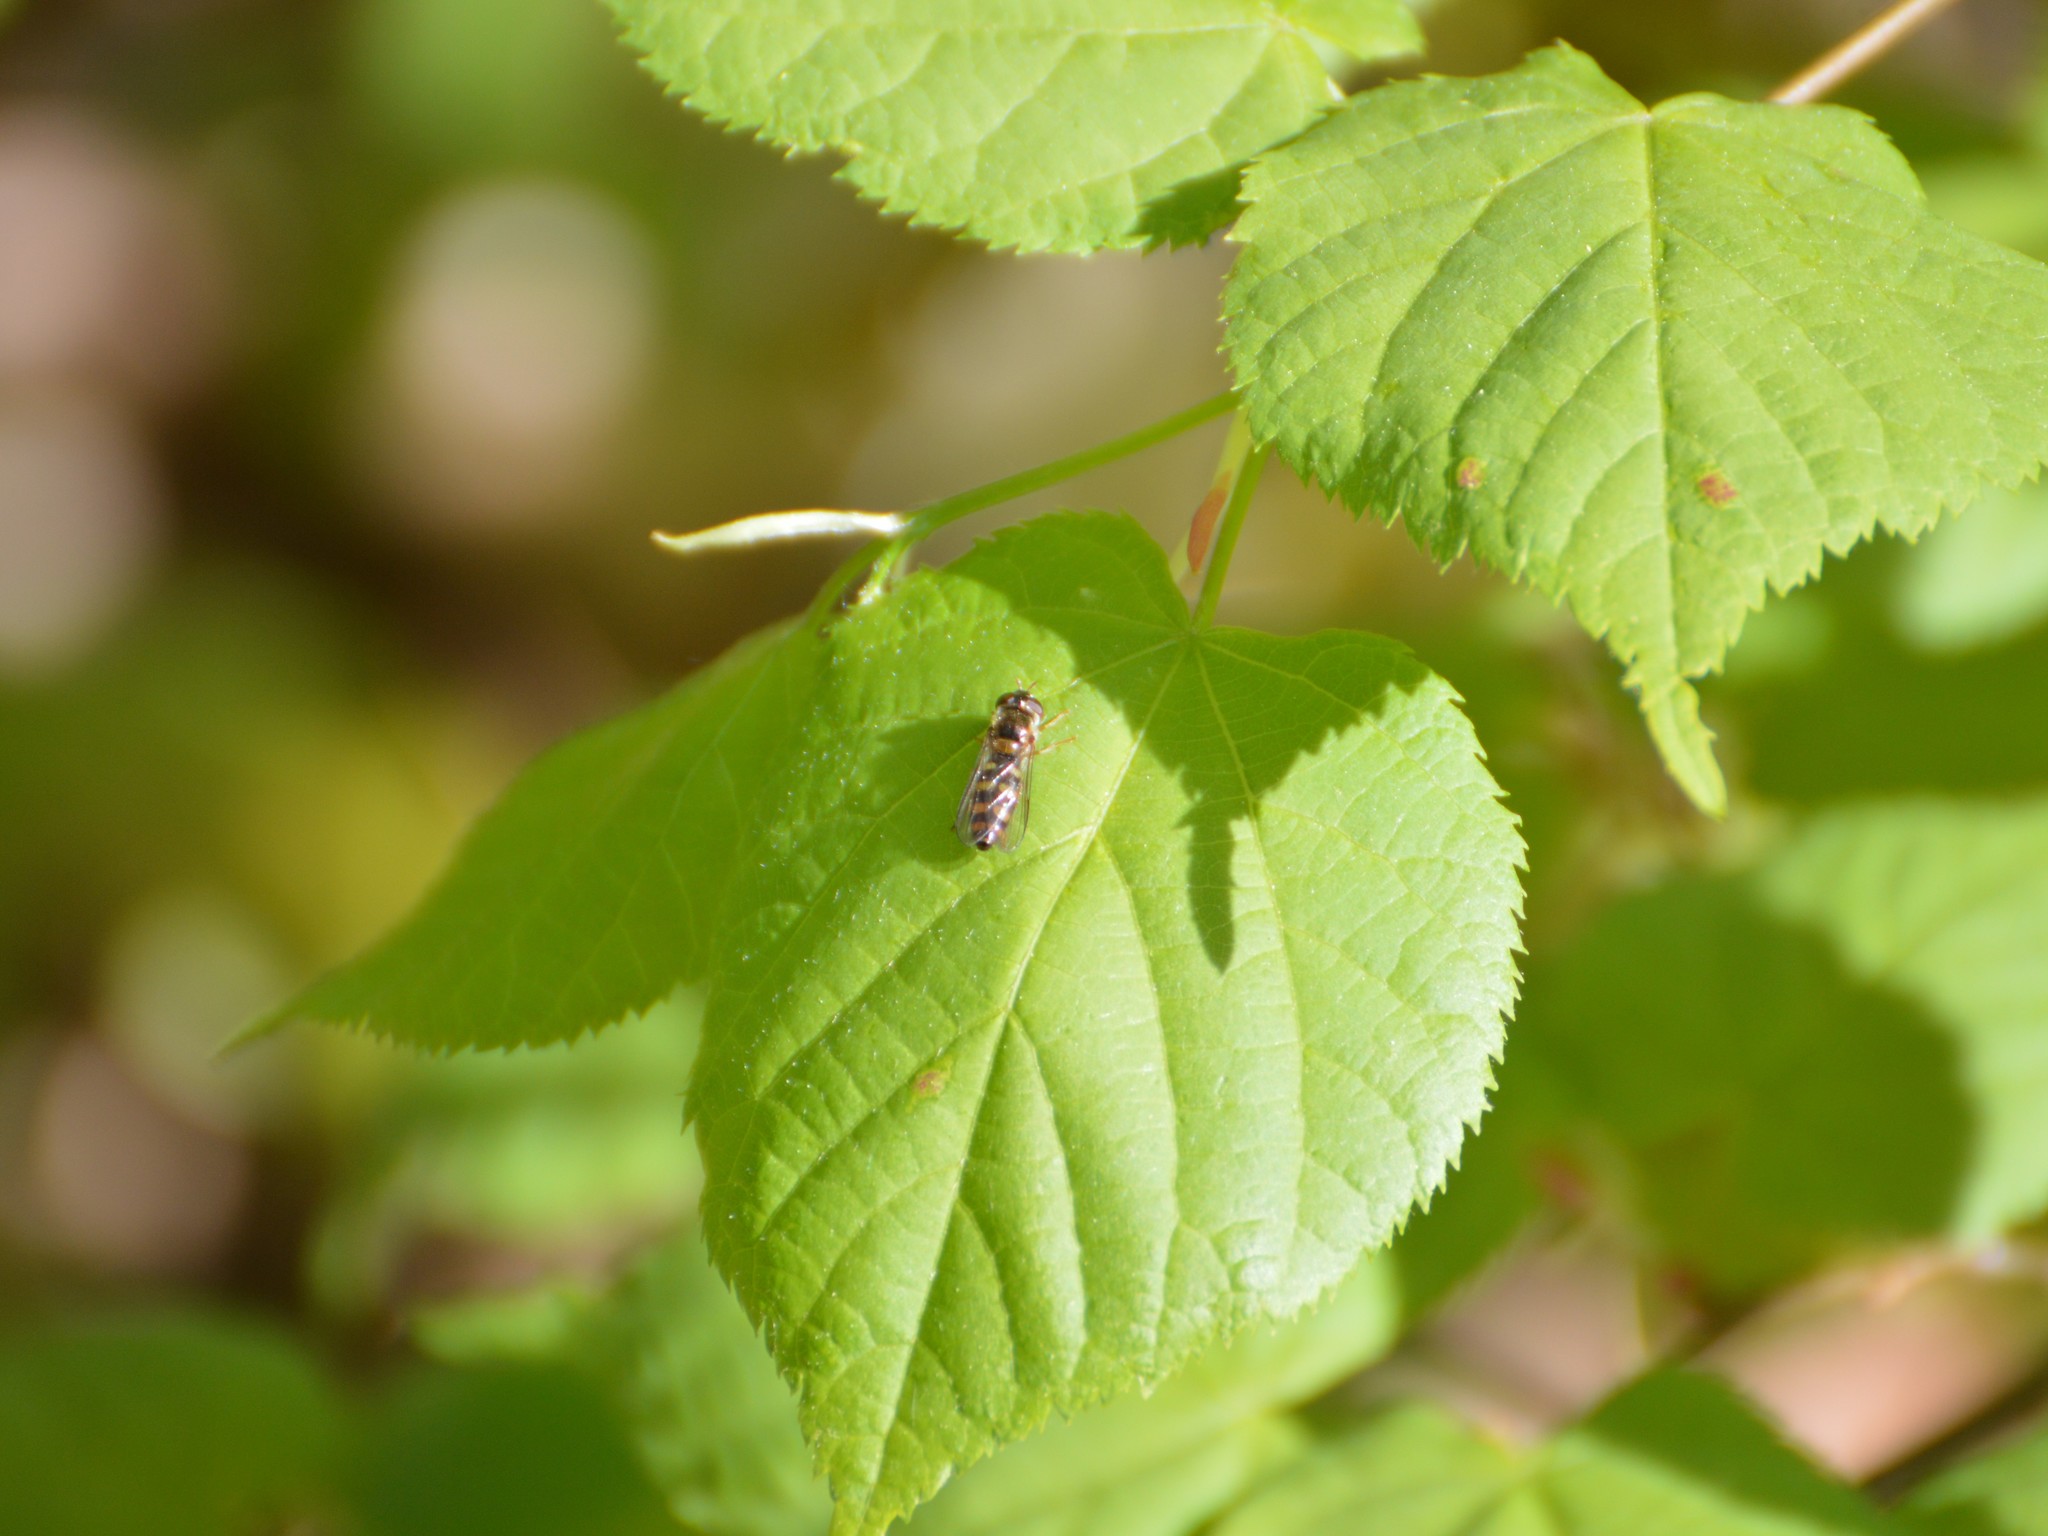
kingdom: Animalia
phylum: Arthropoda
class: Insecta
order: Diptera
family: Syrphidae
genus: Epistrophella
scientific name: Epistrophella euchromus
